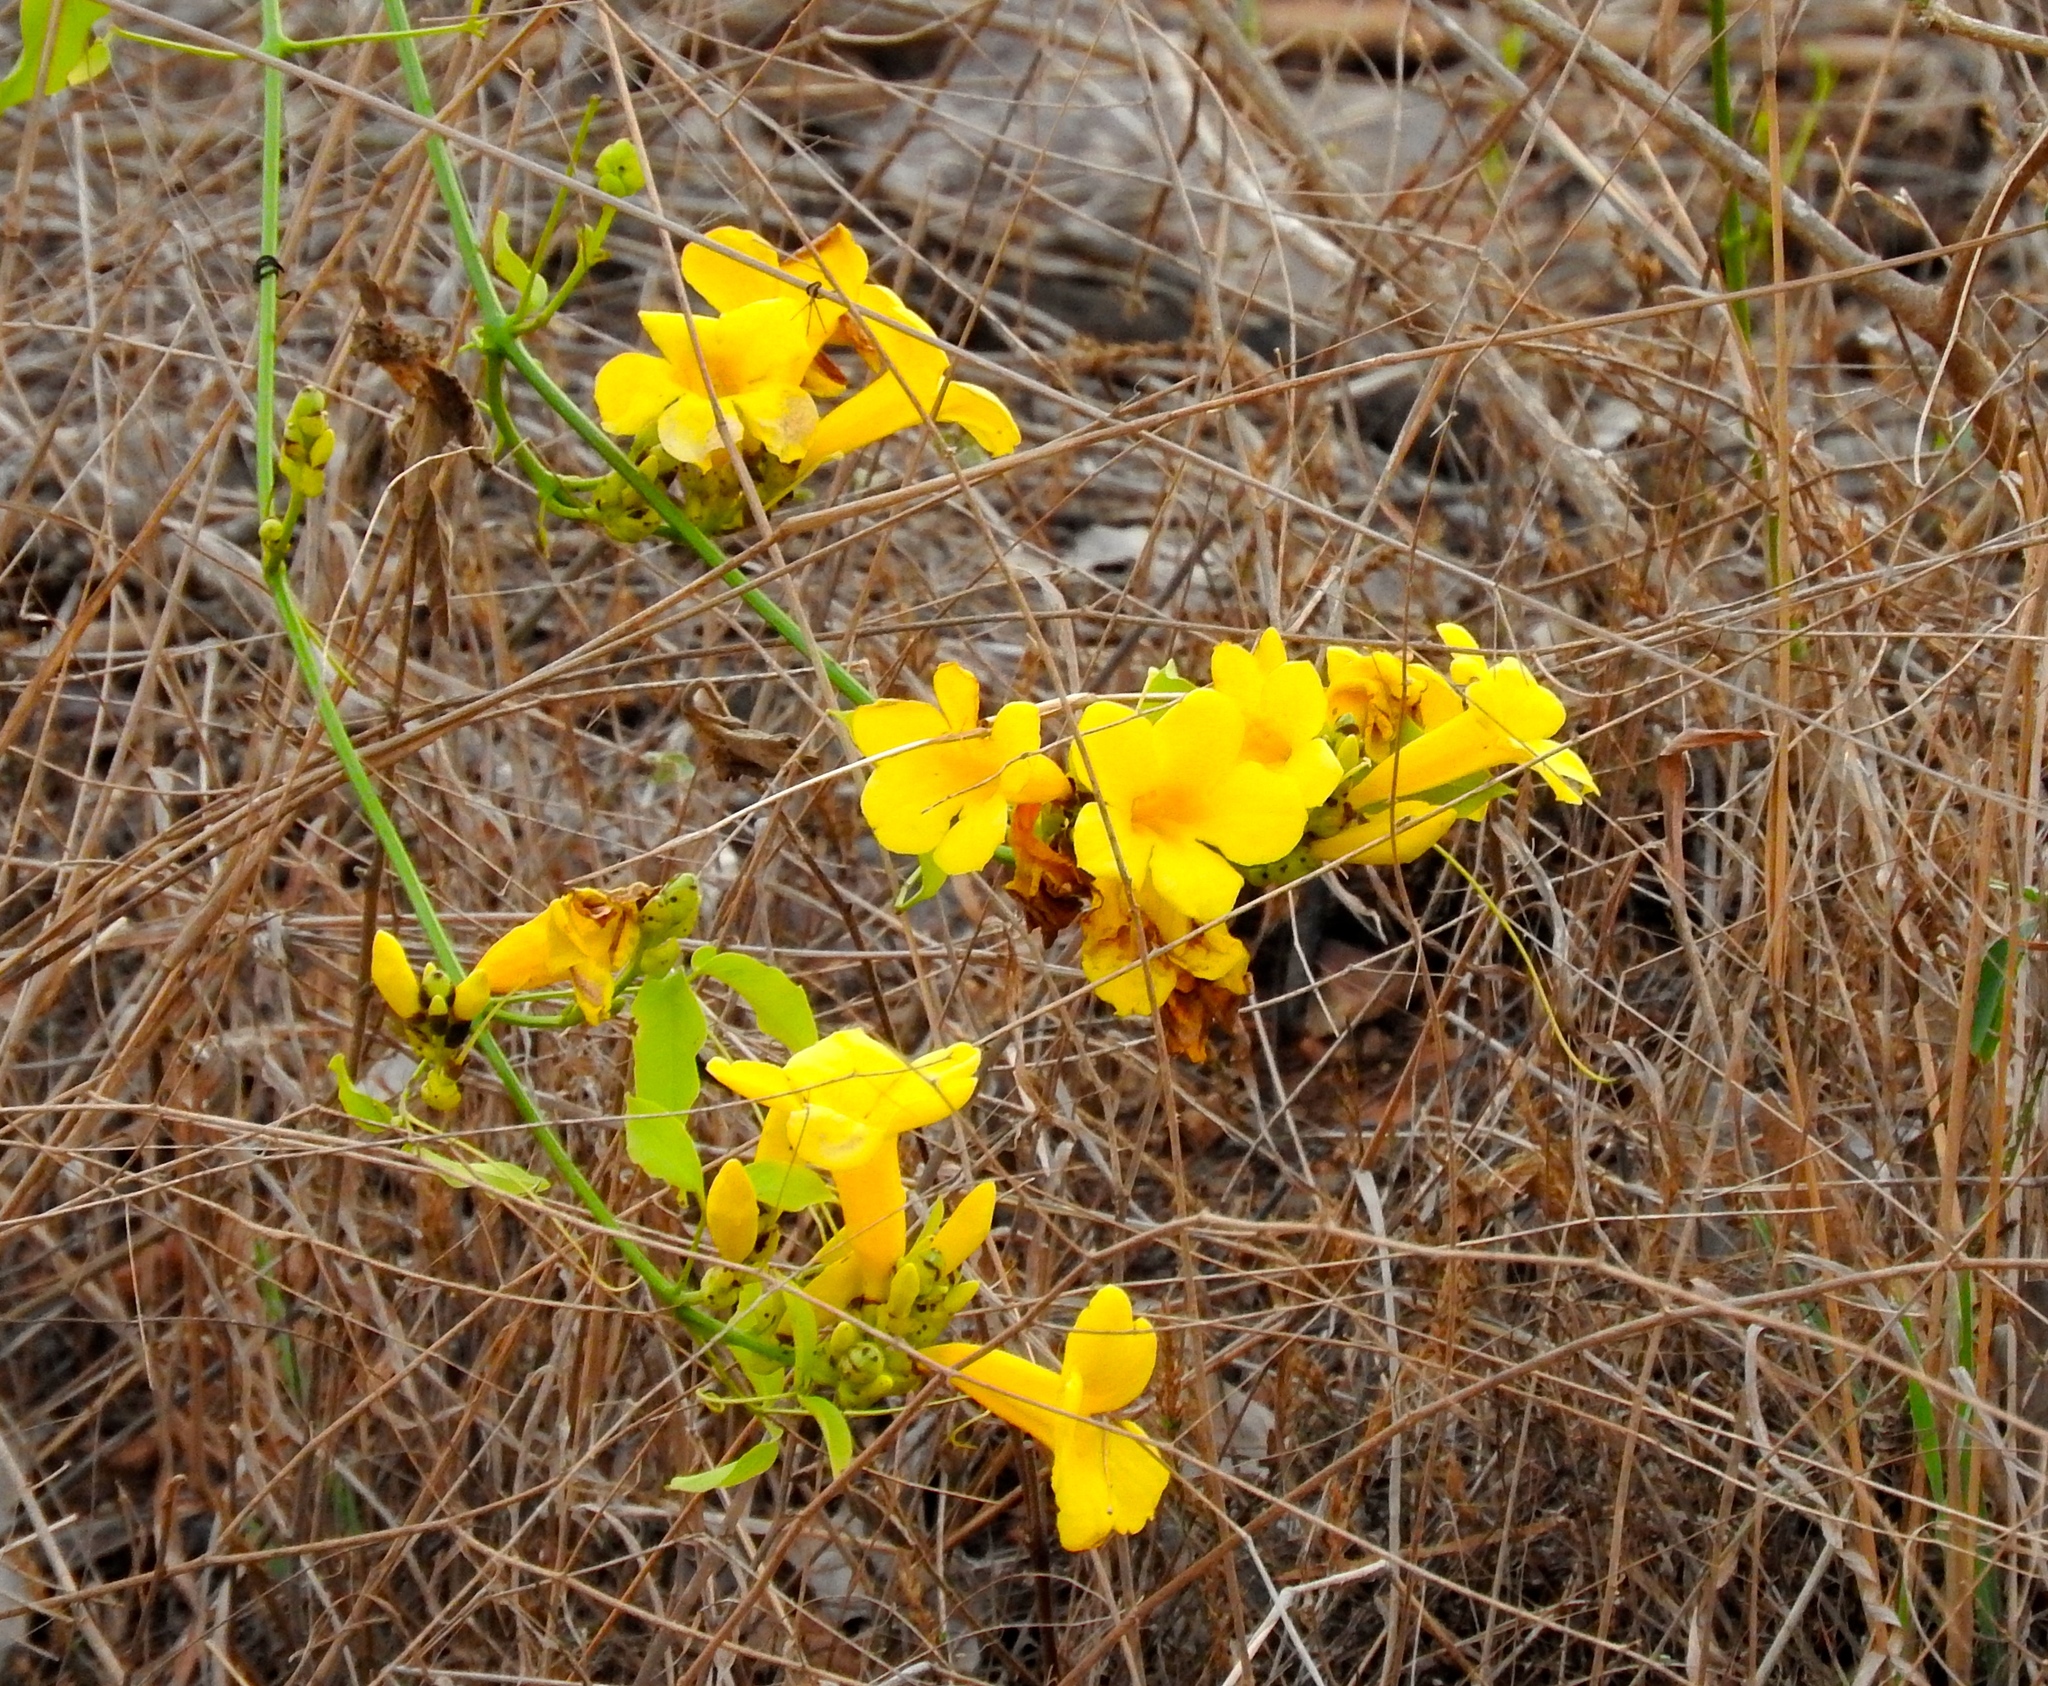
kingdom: Plantae
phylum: Tracheophyta
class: Magnoliopsida
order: Lamiales
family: Bignoniaceae
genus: Adenocalymma
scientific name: Adenocalymma inundatum
